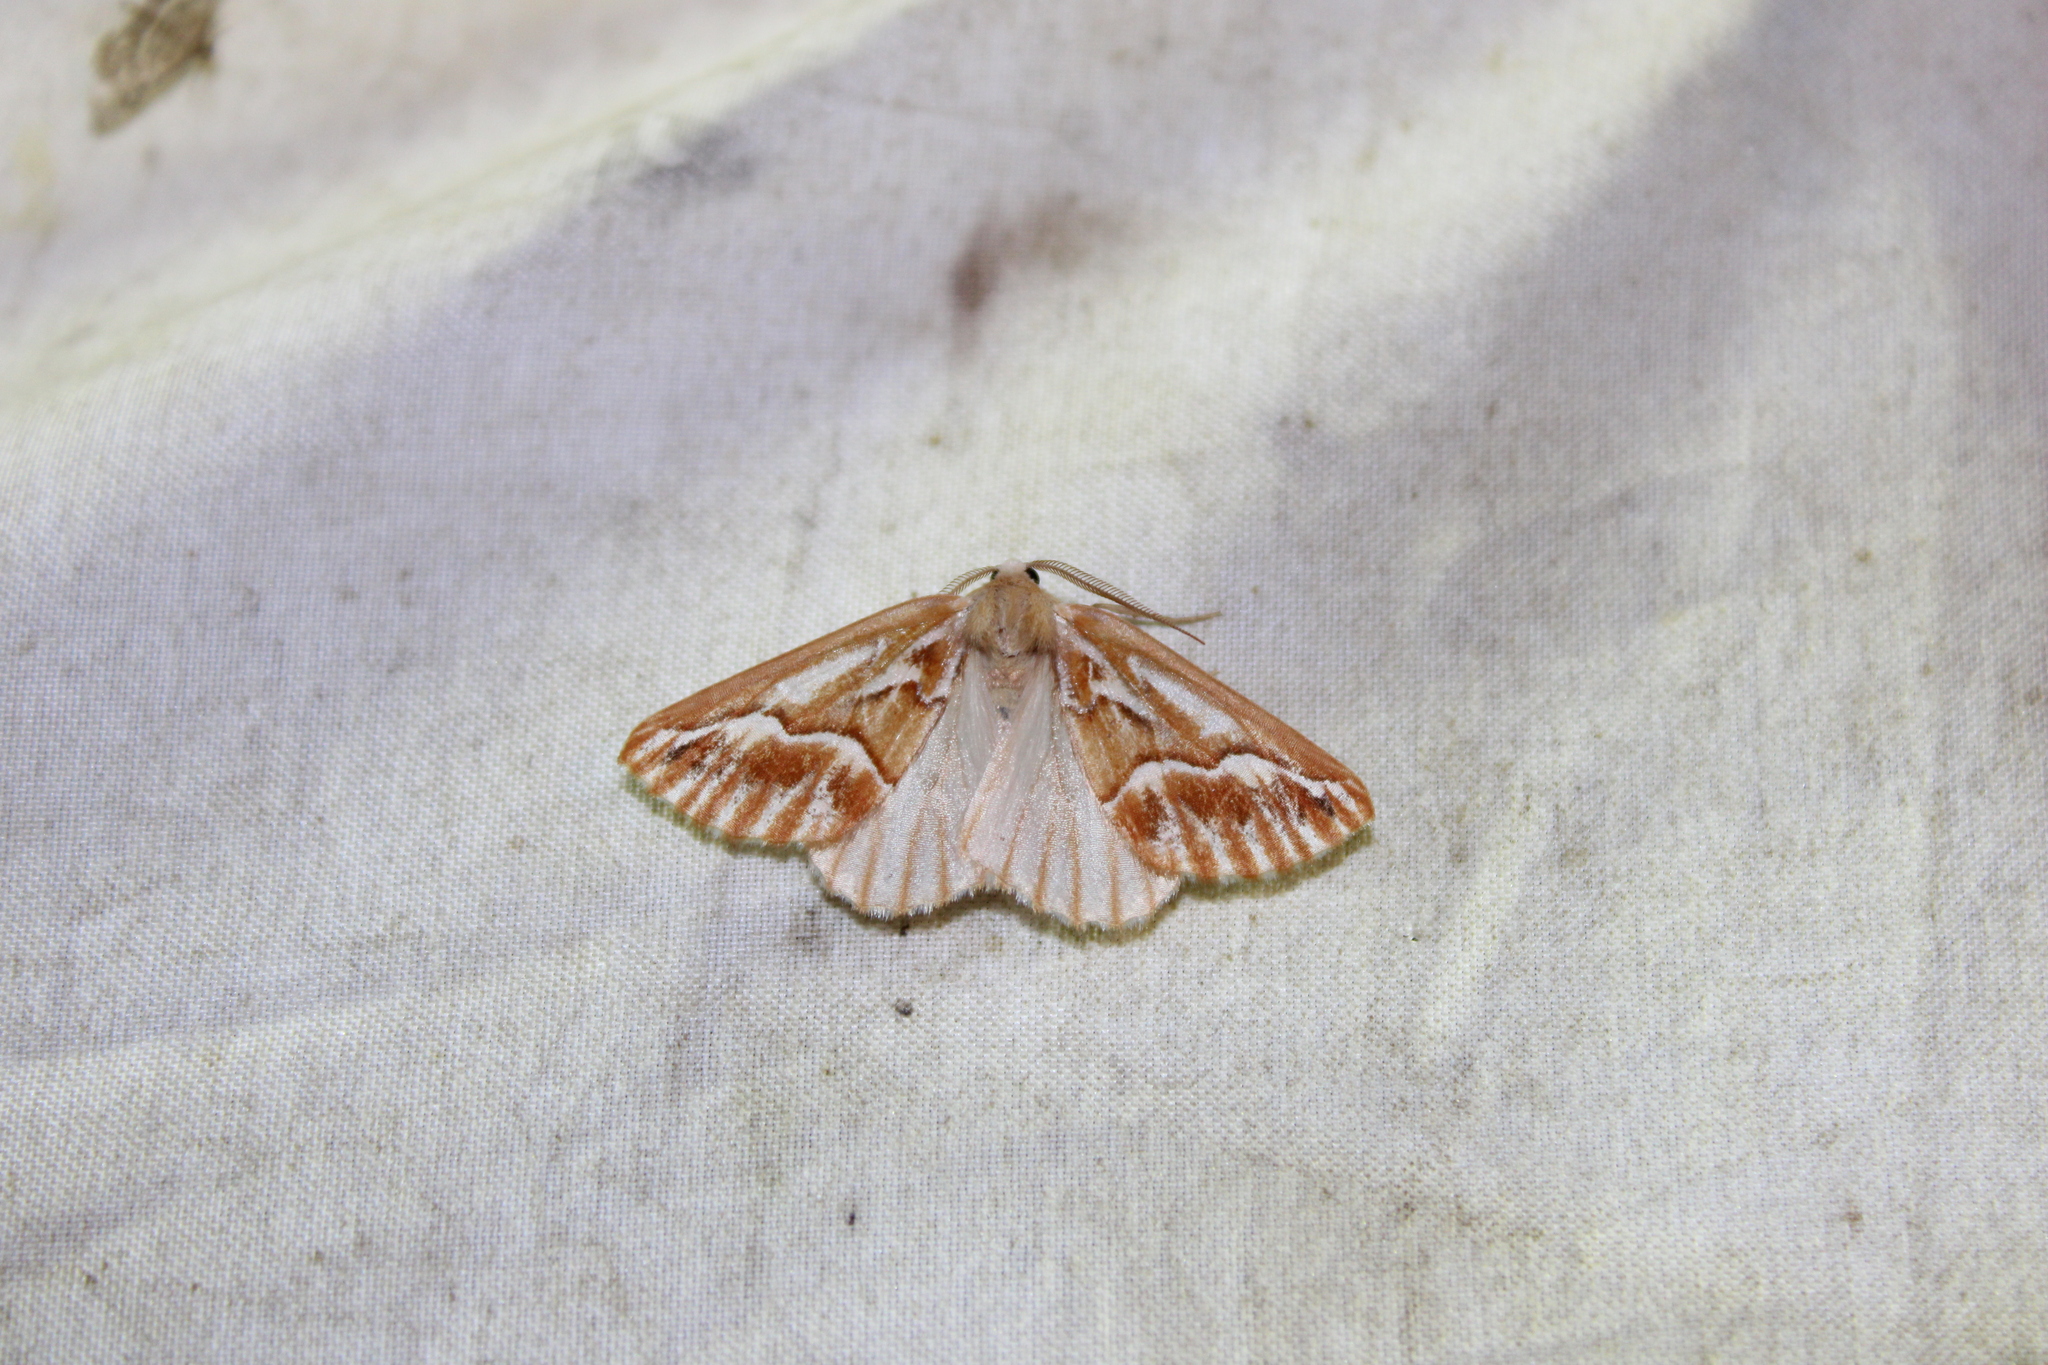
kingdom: Animalia
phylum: Arthropoda
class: Insecta
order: Lepidoptera
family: Geometridae
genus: Caripeta
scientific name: Caripeta piniata
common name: Northern pine looper moth
